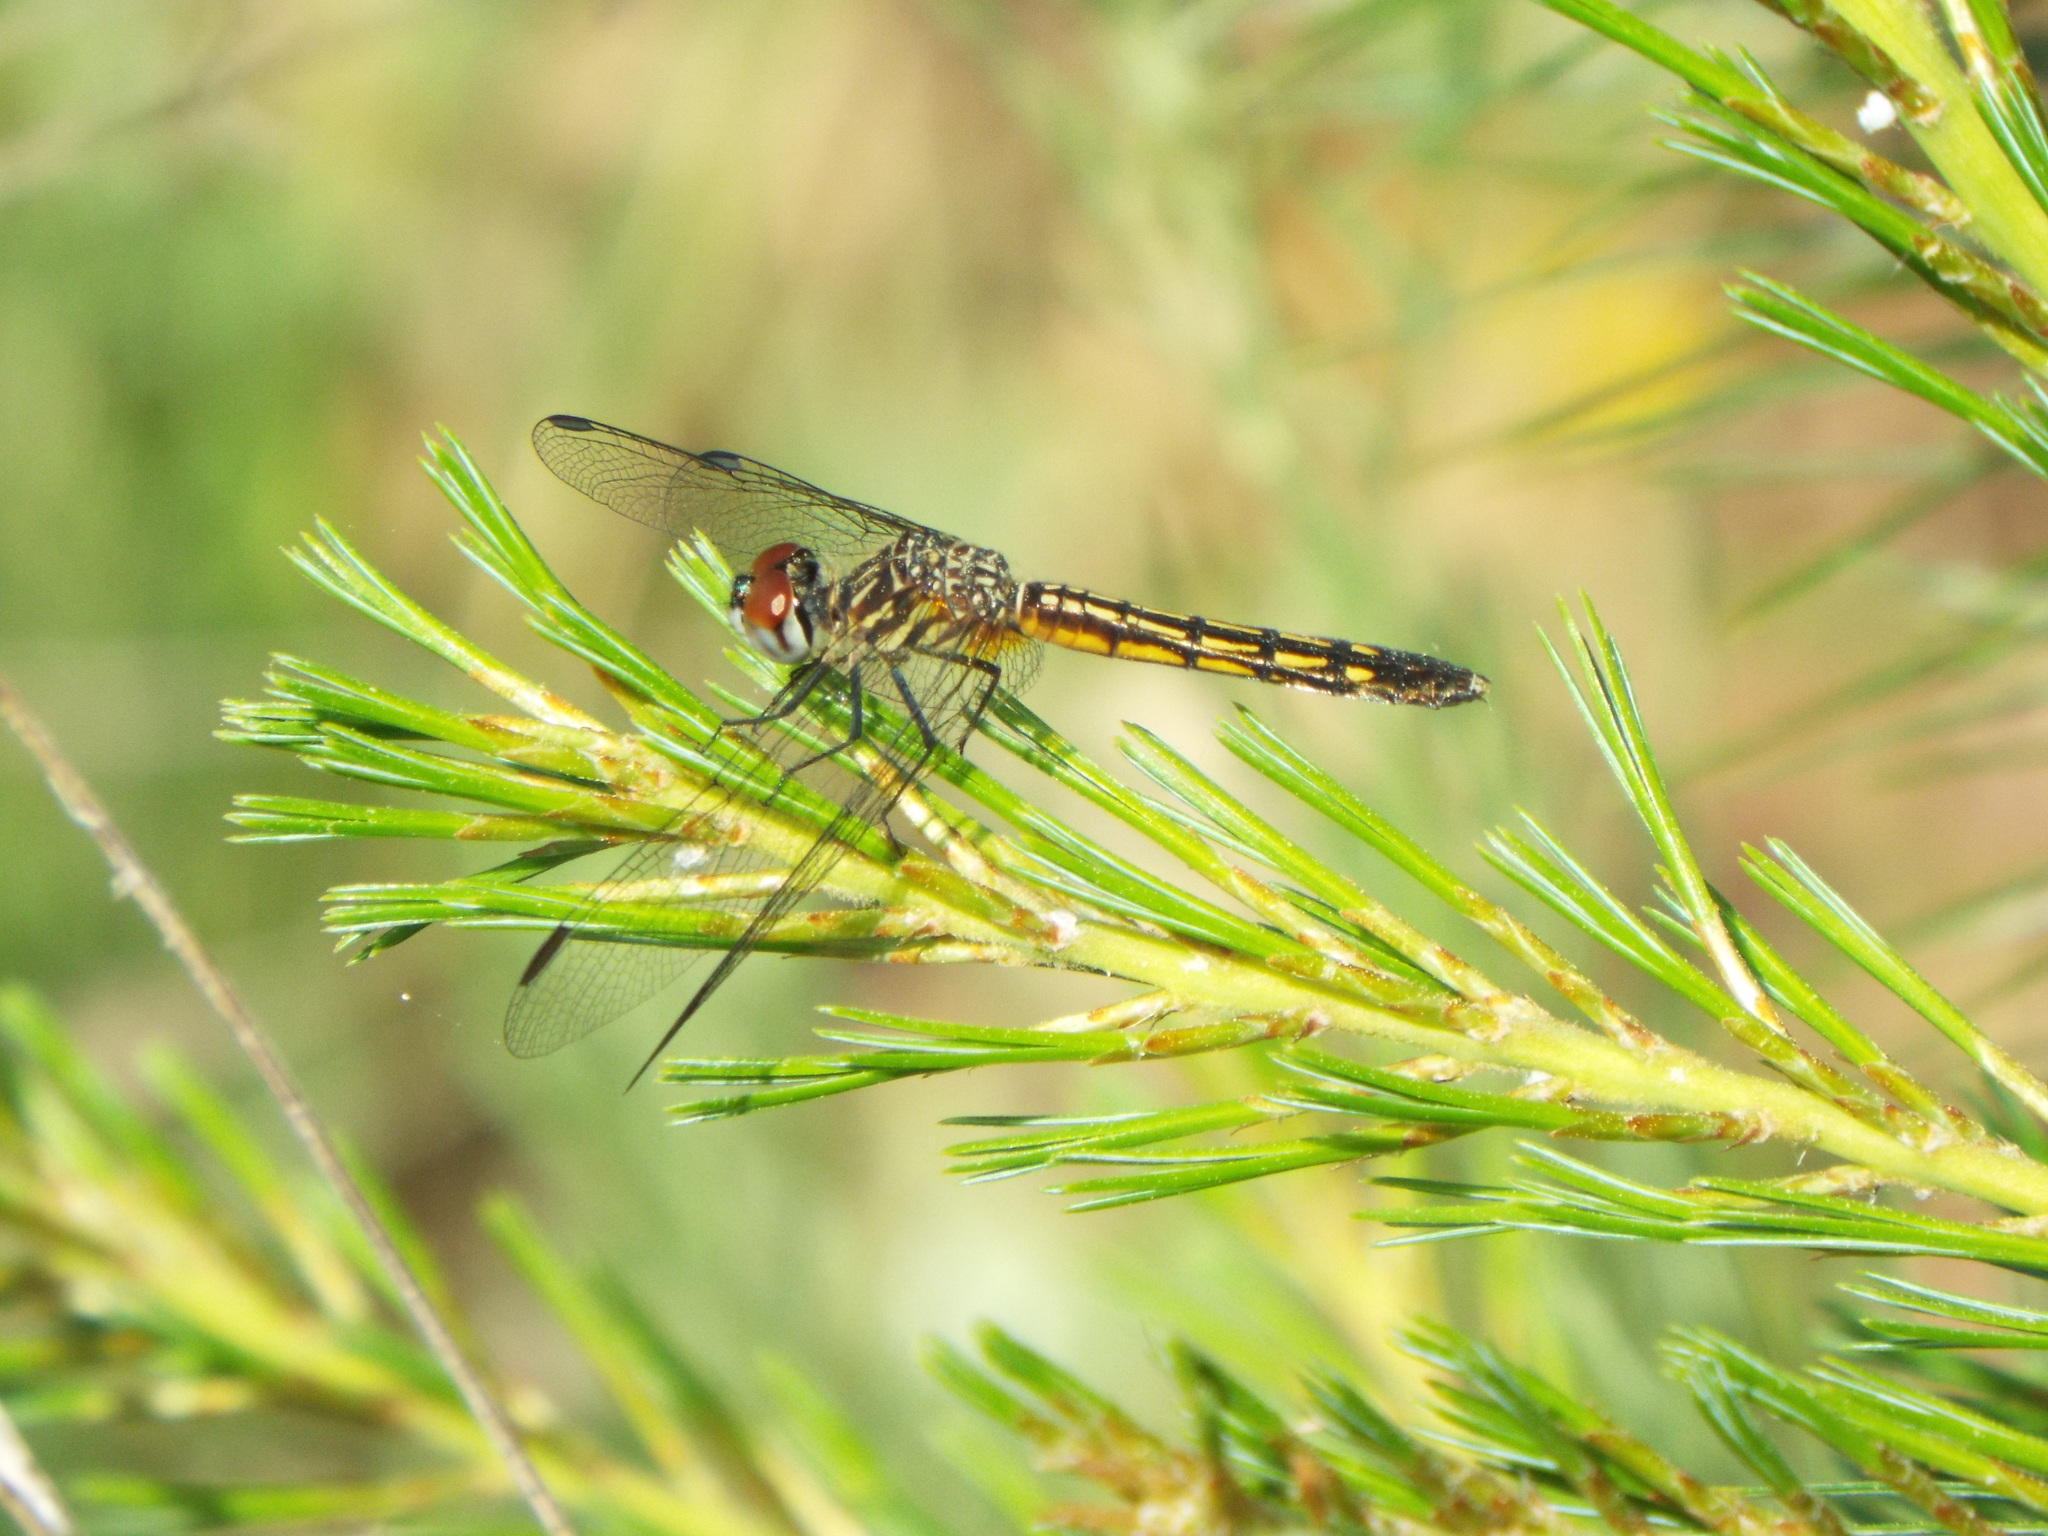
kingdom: Animalia
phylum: Arthropoda
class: Insecta
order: Odonata
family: Libellulidae
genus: Pachydiplax
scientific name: Pachydiplax longipennis
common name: Blue dasher
